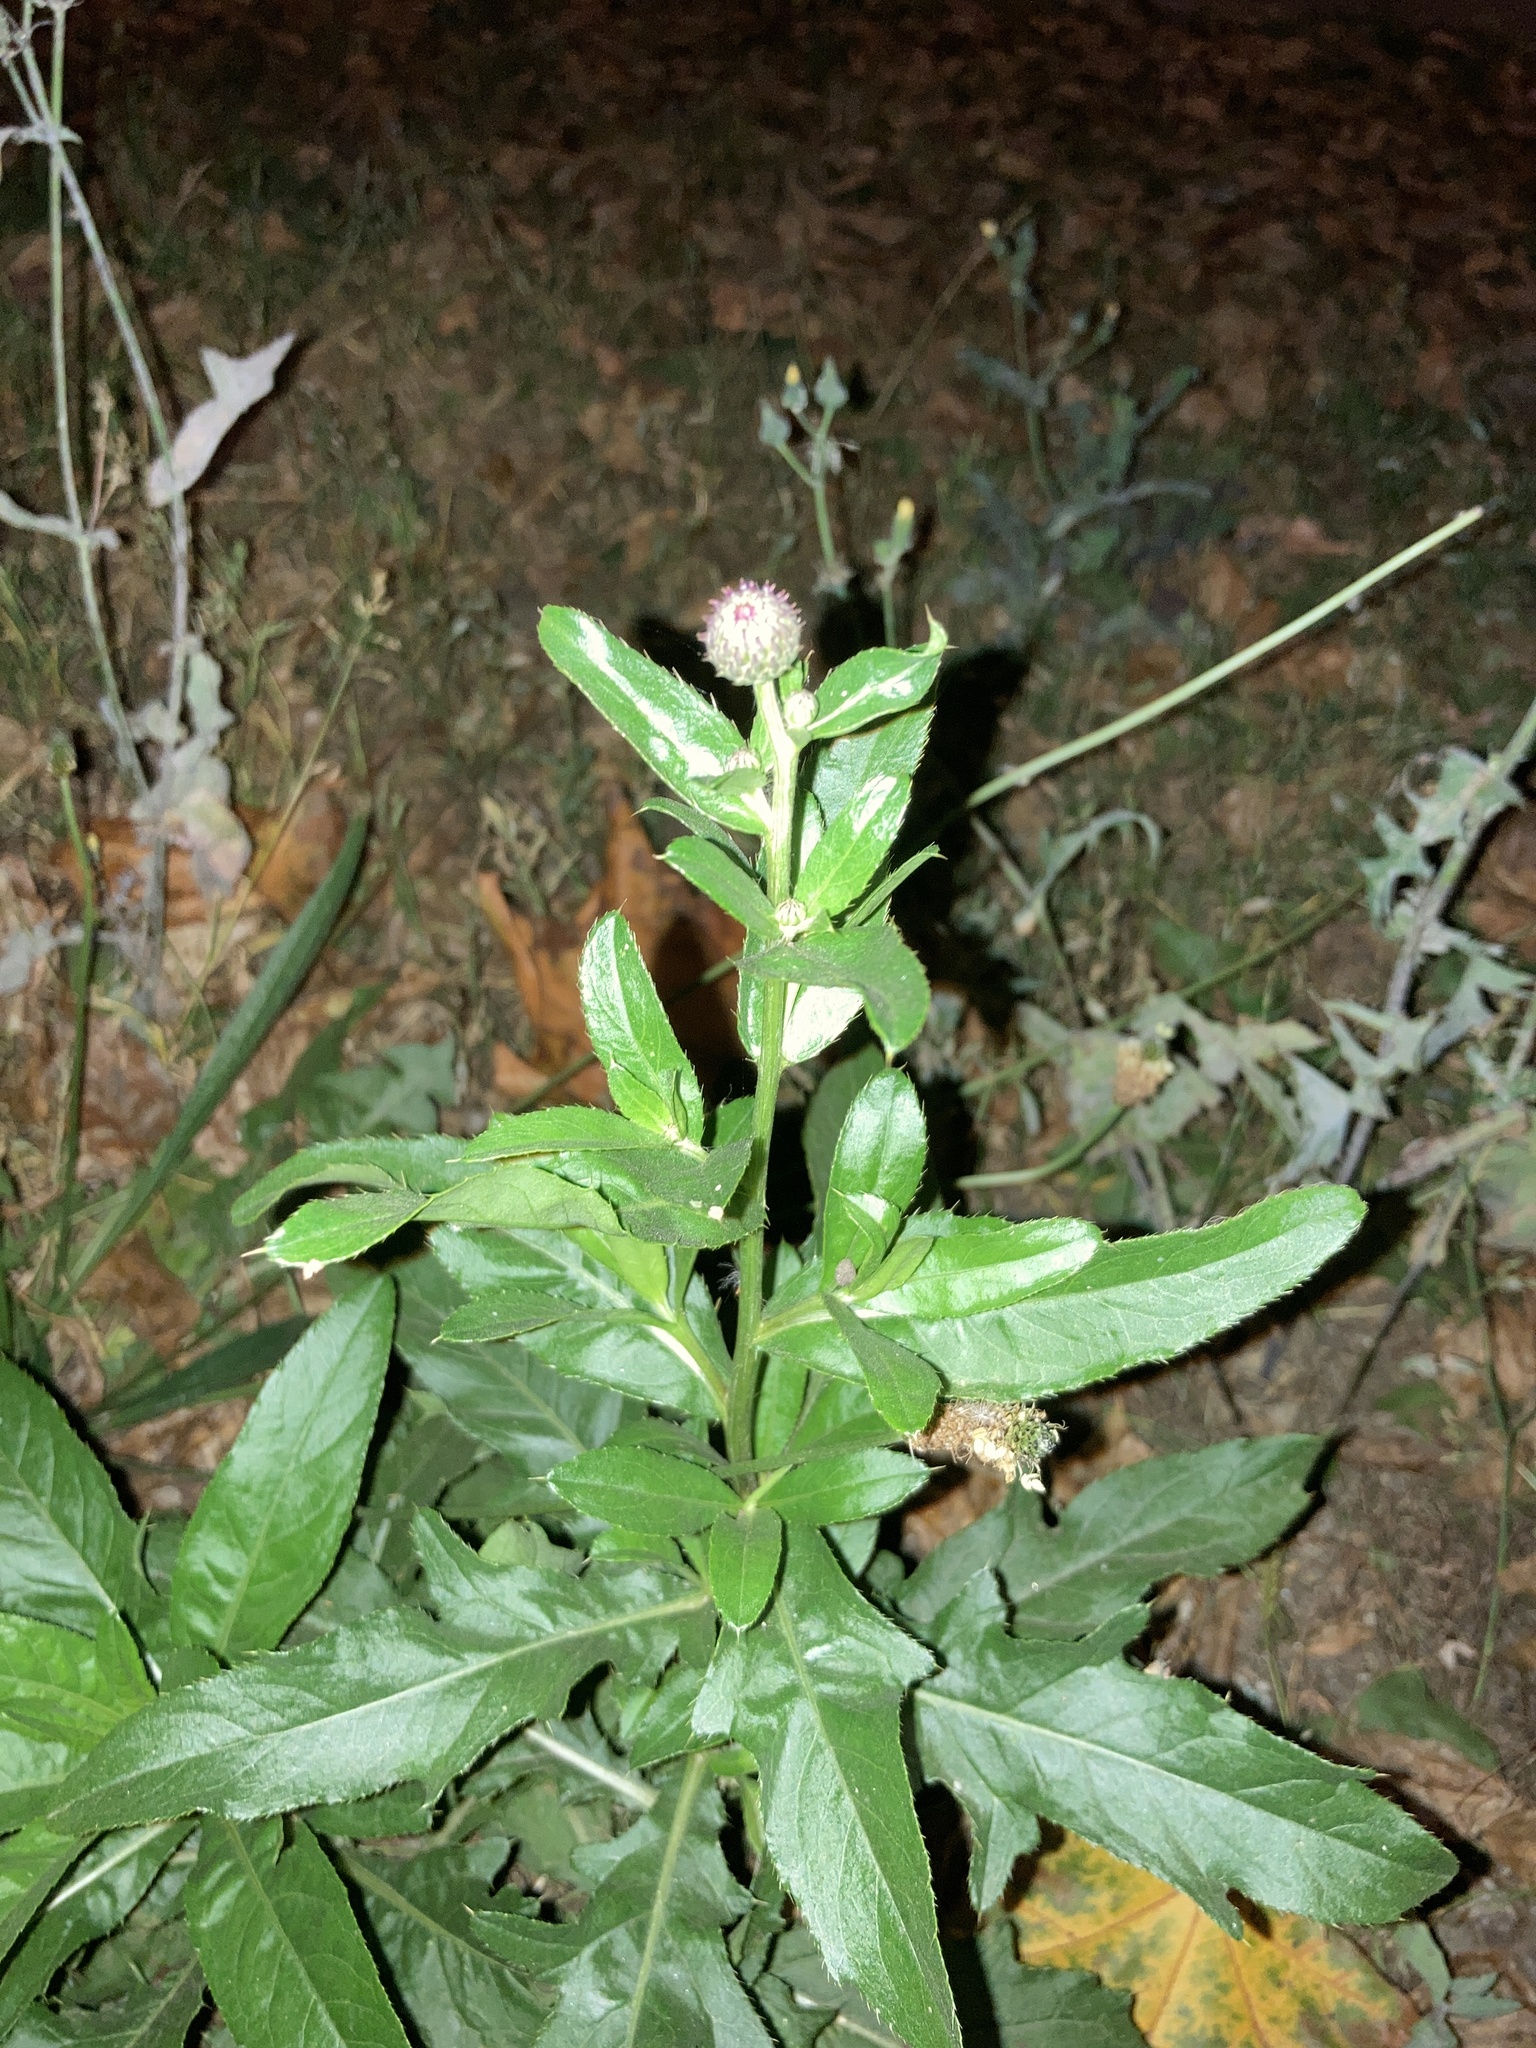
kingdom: Plantae
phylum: Tracheophyta
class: Magnoliopsida
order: Asterales
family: Asteraceae
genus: Cirsium
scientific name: Cirsium arvense
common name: Creeping thistle
